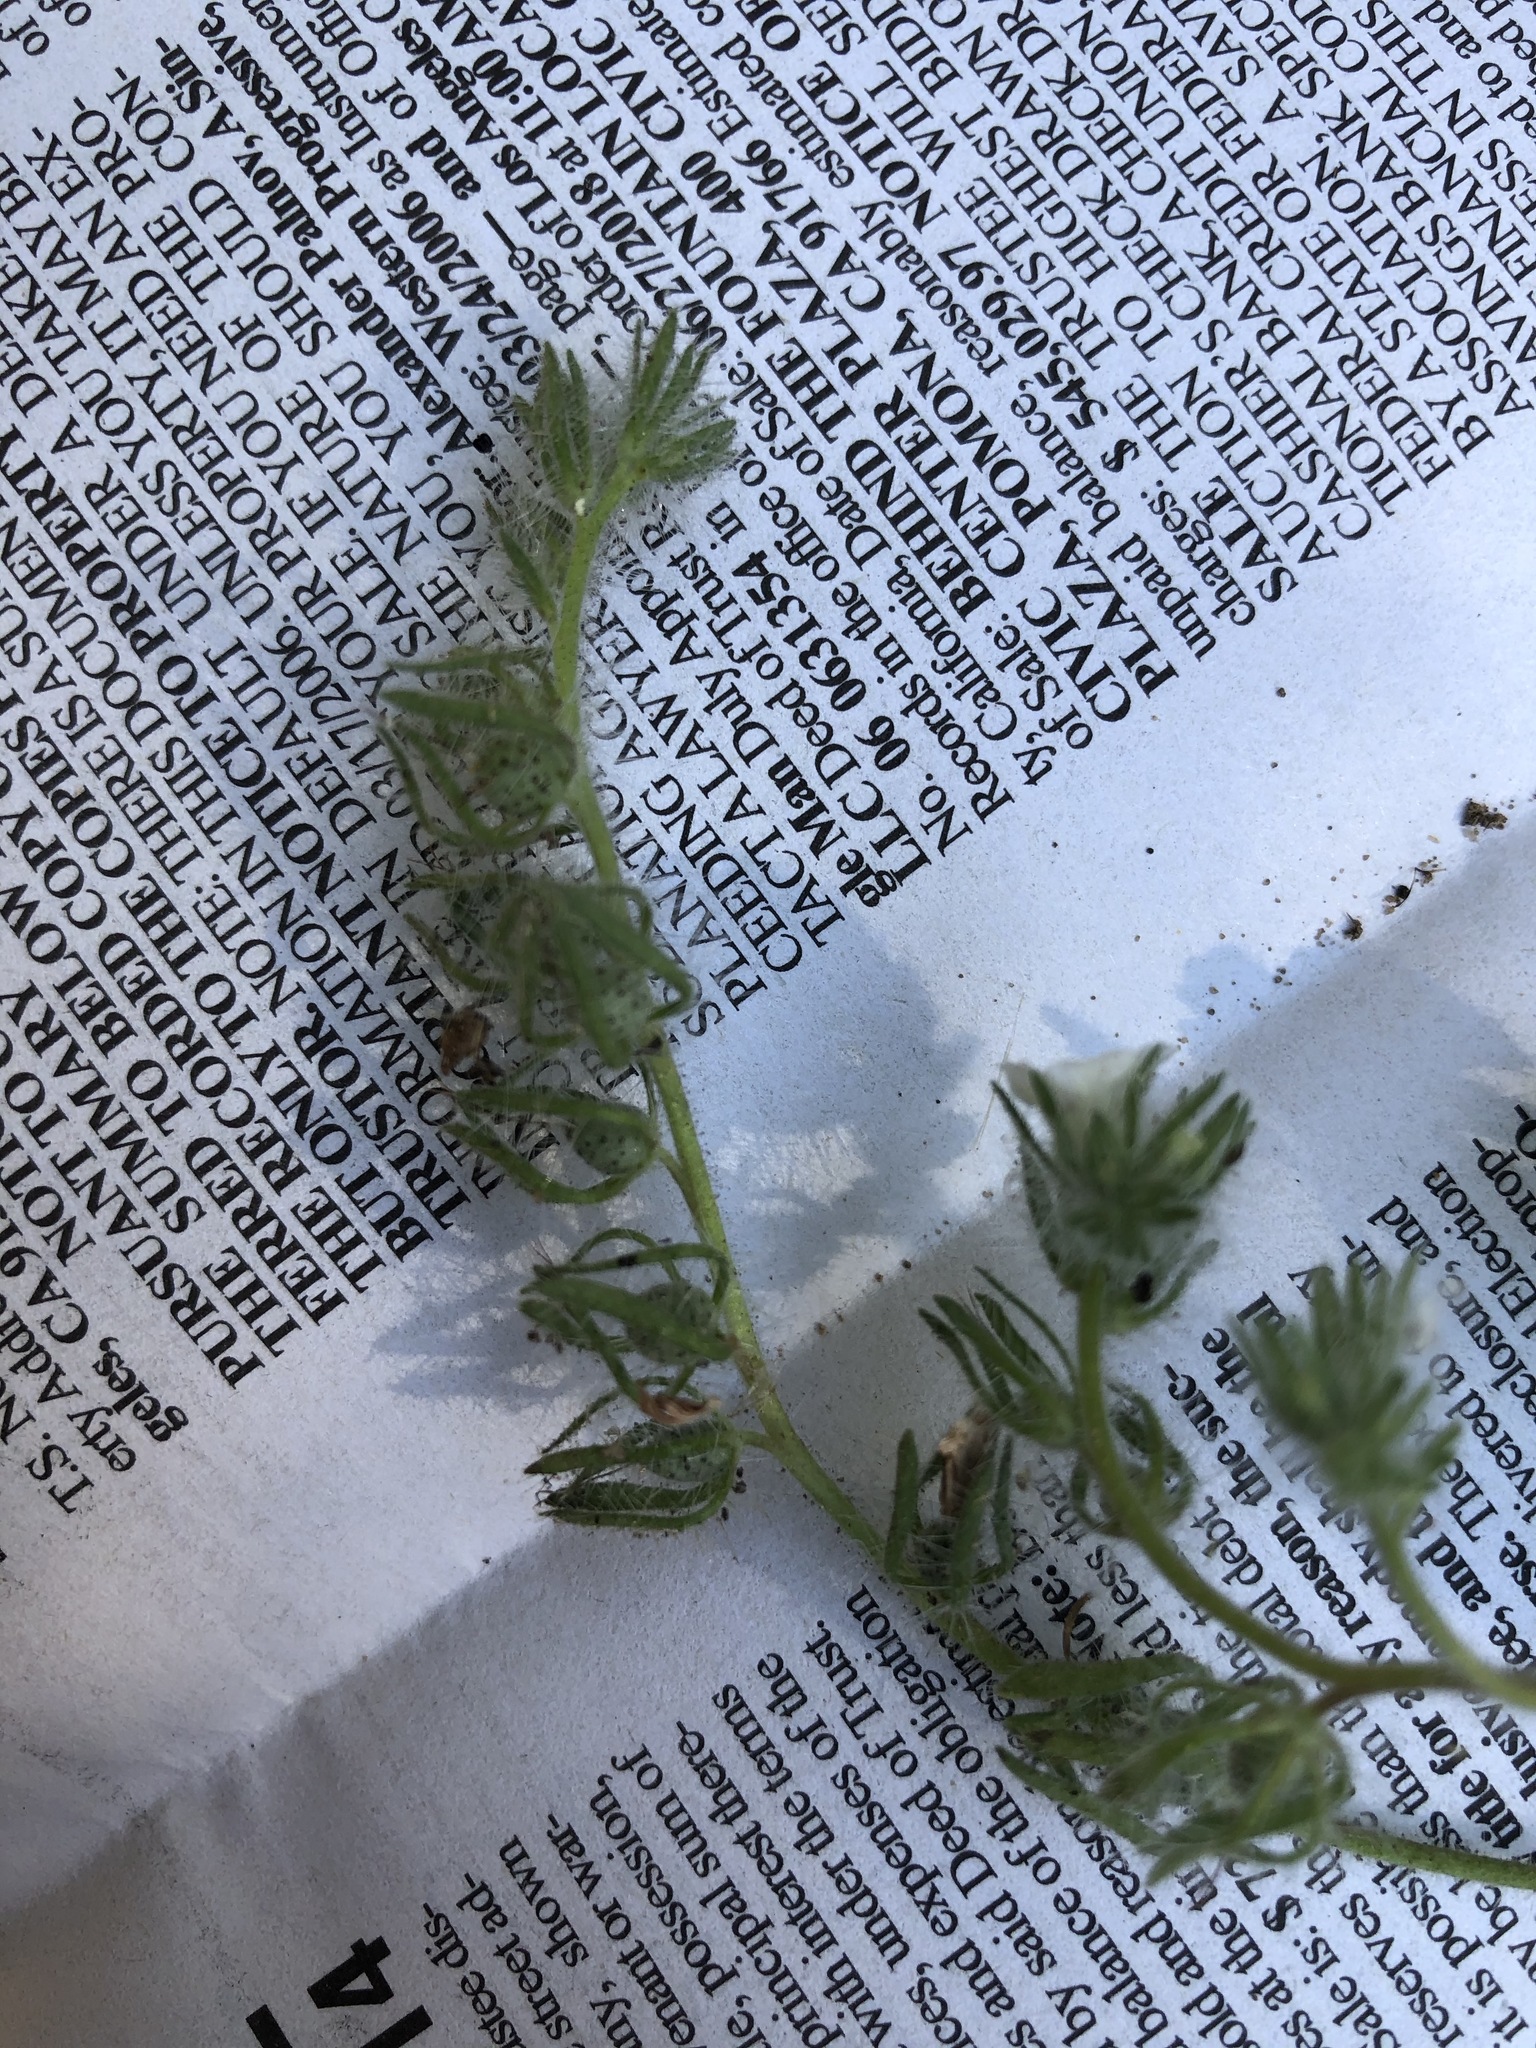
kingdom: Plantae
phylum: Tracheophyta
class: Magnoliopsida
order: Boraginales
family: Hydrophyllaceae
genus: Phacelia
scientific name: Phacelia cicutaria
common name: Caterpillar phacelia
